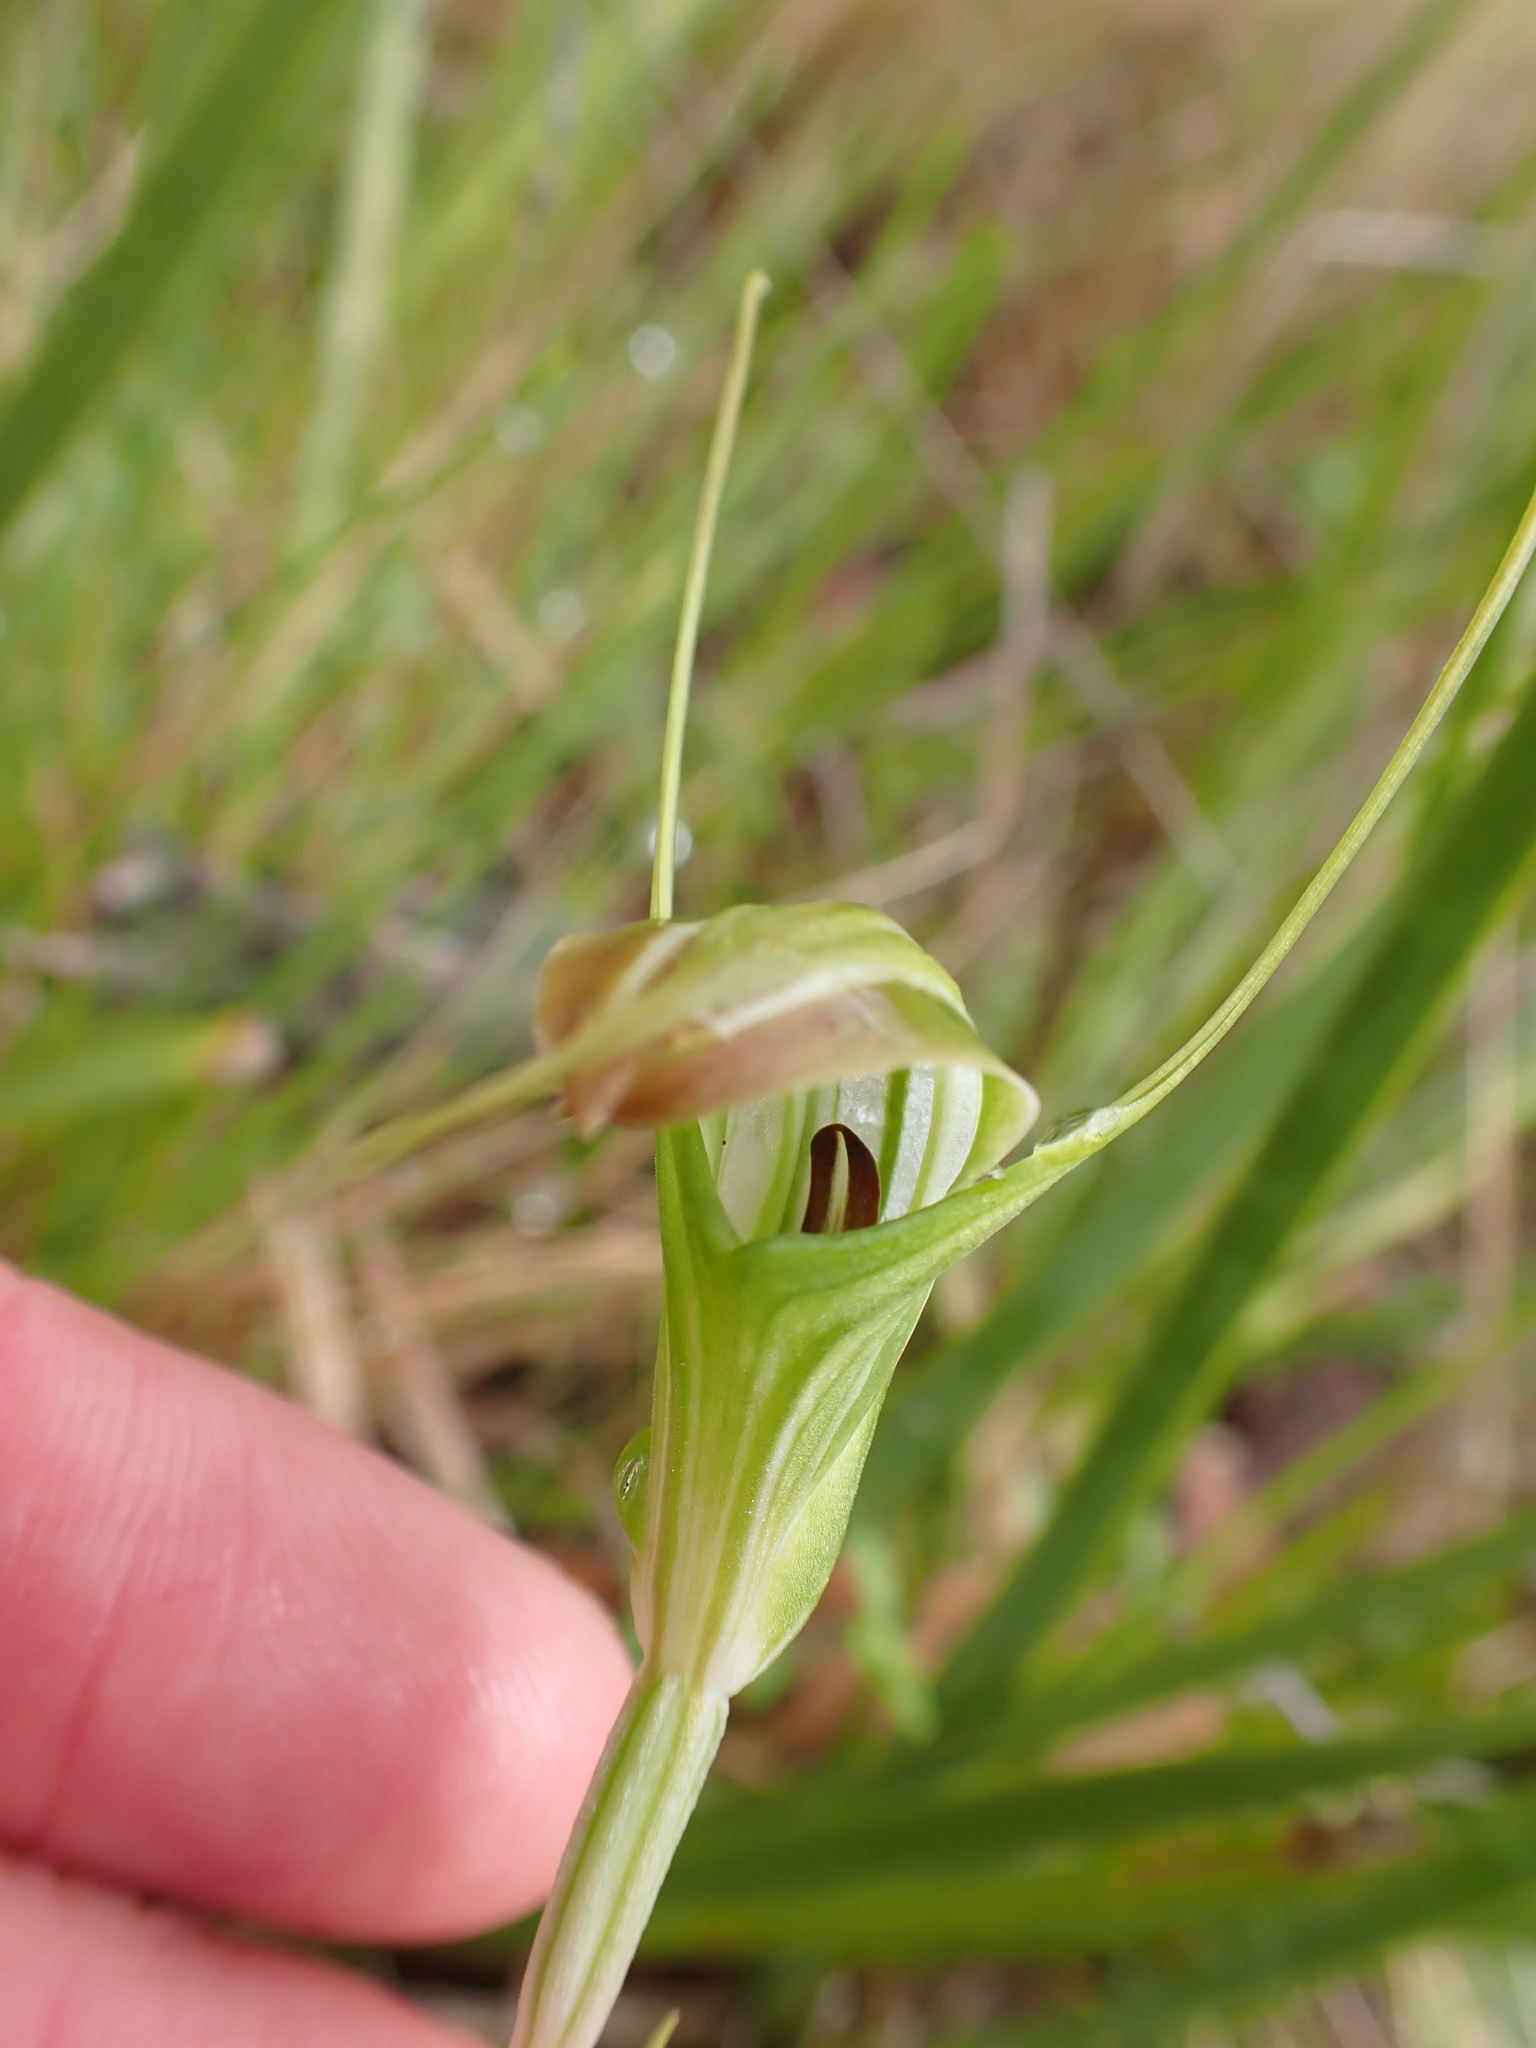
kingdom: Plantae
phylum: Tracheophyta
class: Liliopsida
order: Asparagales
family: Orchidaceae
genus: Pterostylis
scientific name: Pterostylis decurva
